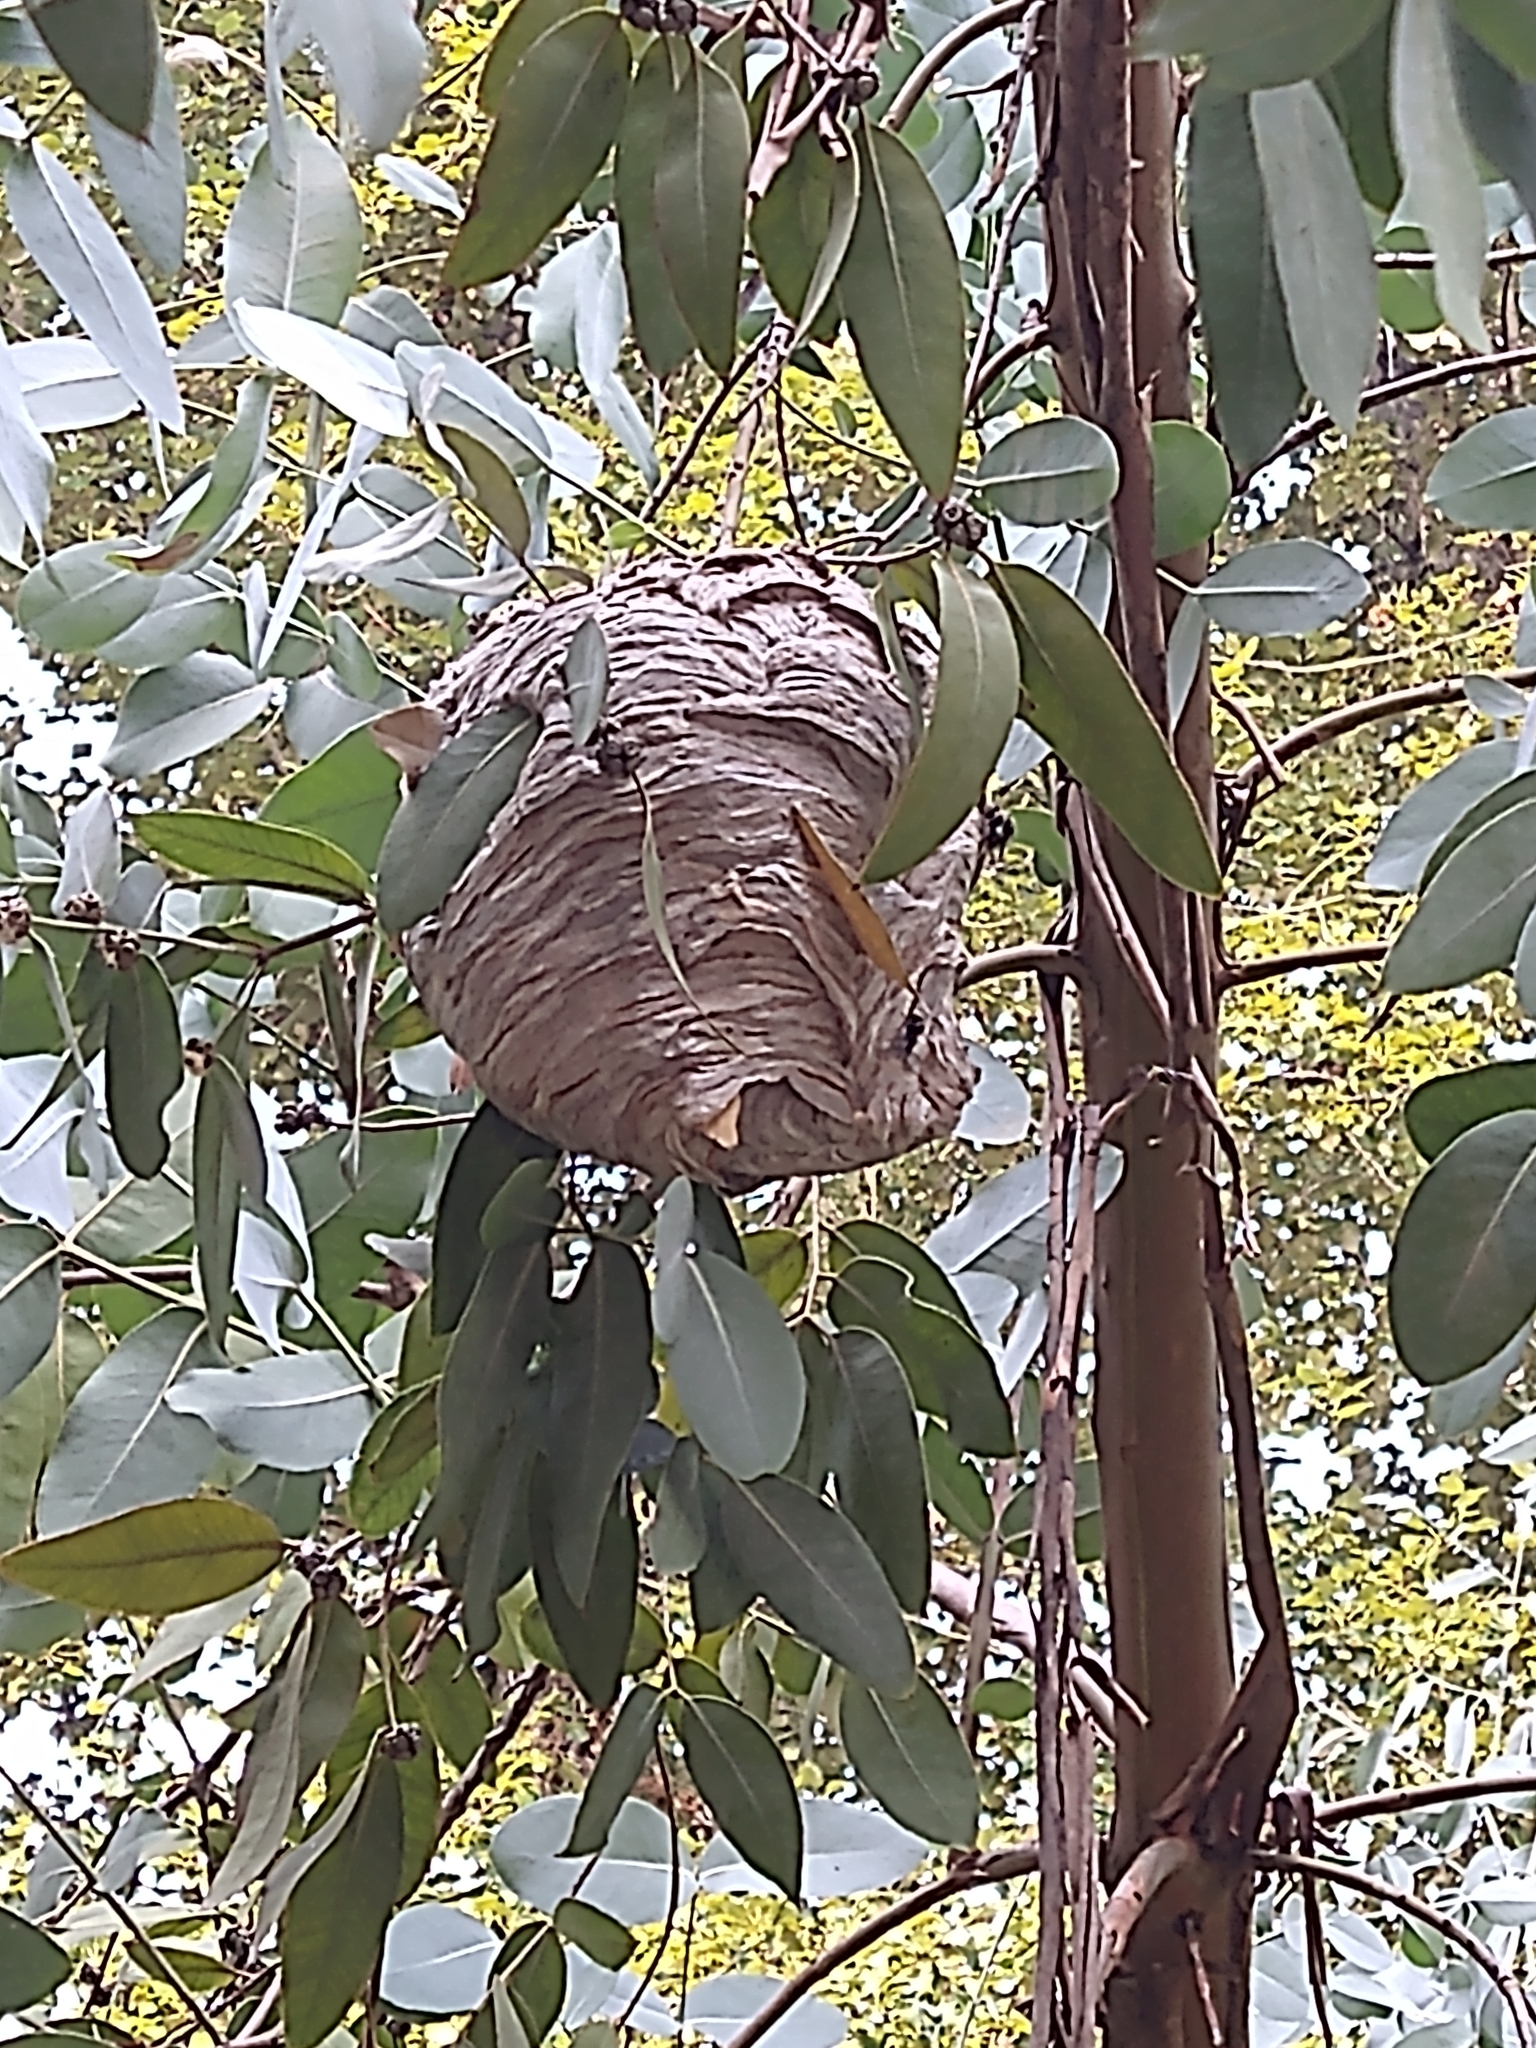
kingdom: Animalia
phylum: Arthropoda
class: Insecta
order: Hymenoptera
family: Vespidae
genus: Dolichovespula
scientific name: Dolichovespula maculata
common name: Bald-faced hornet
